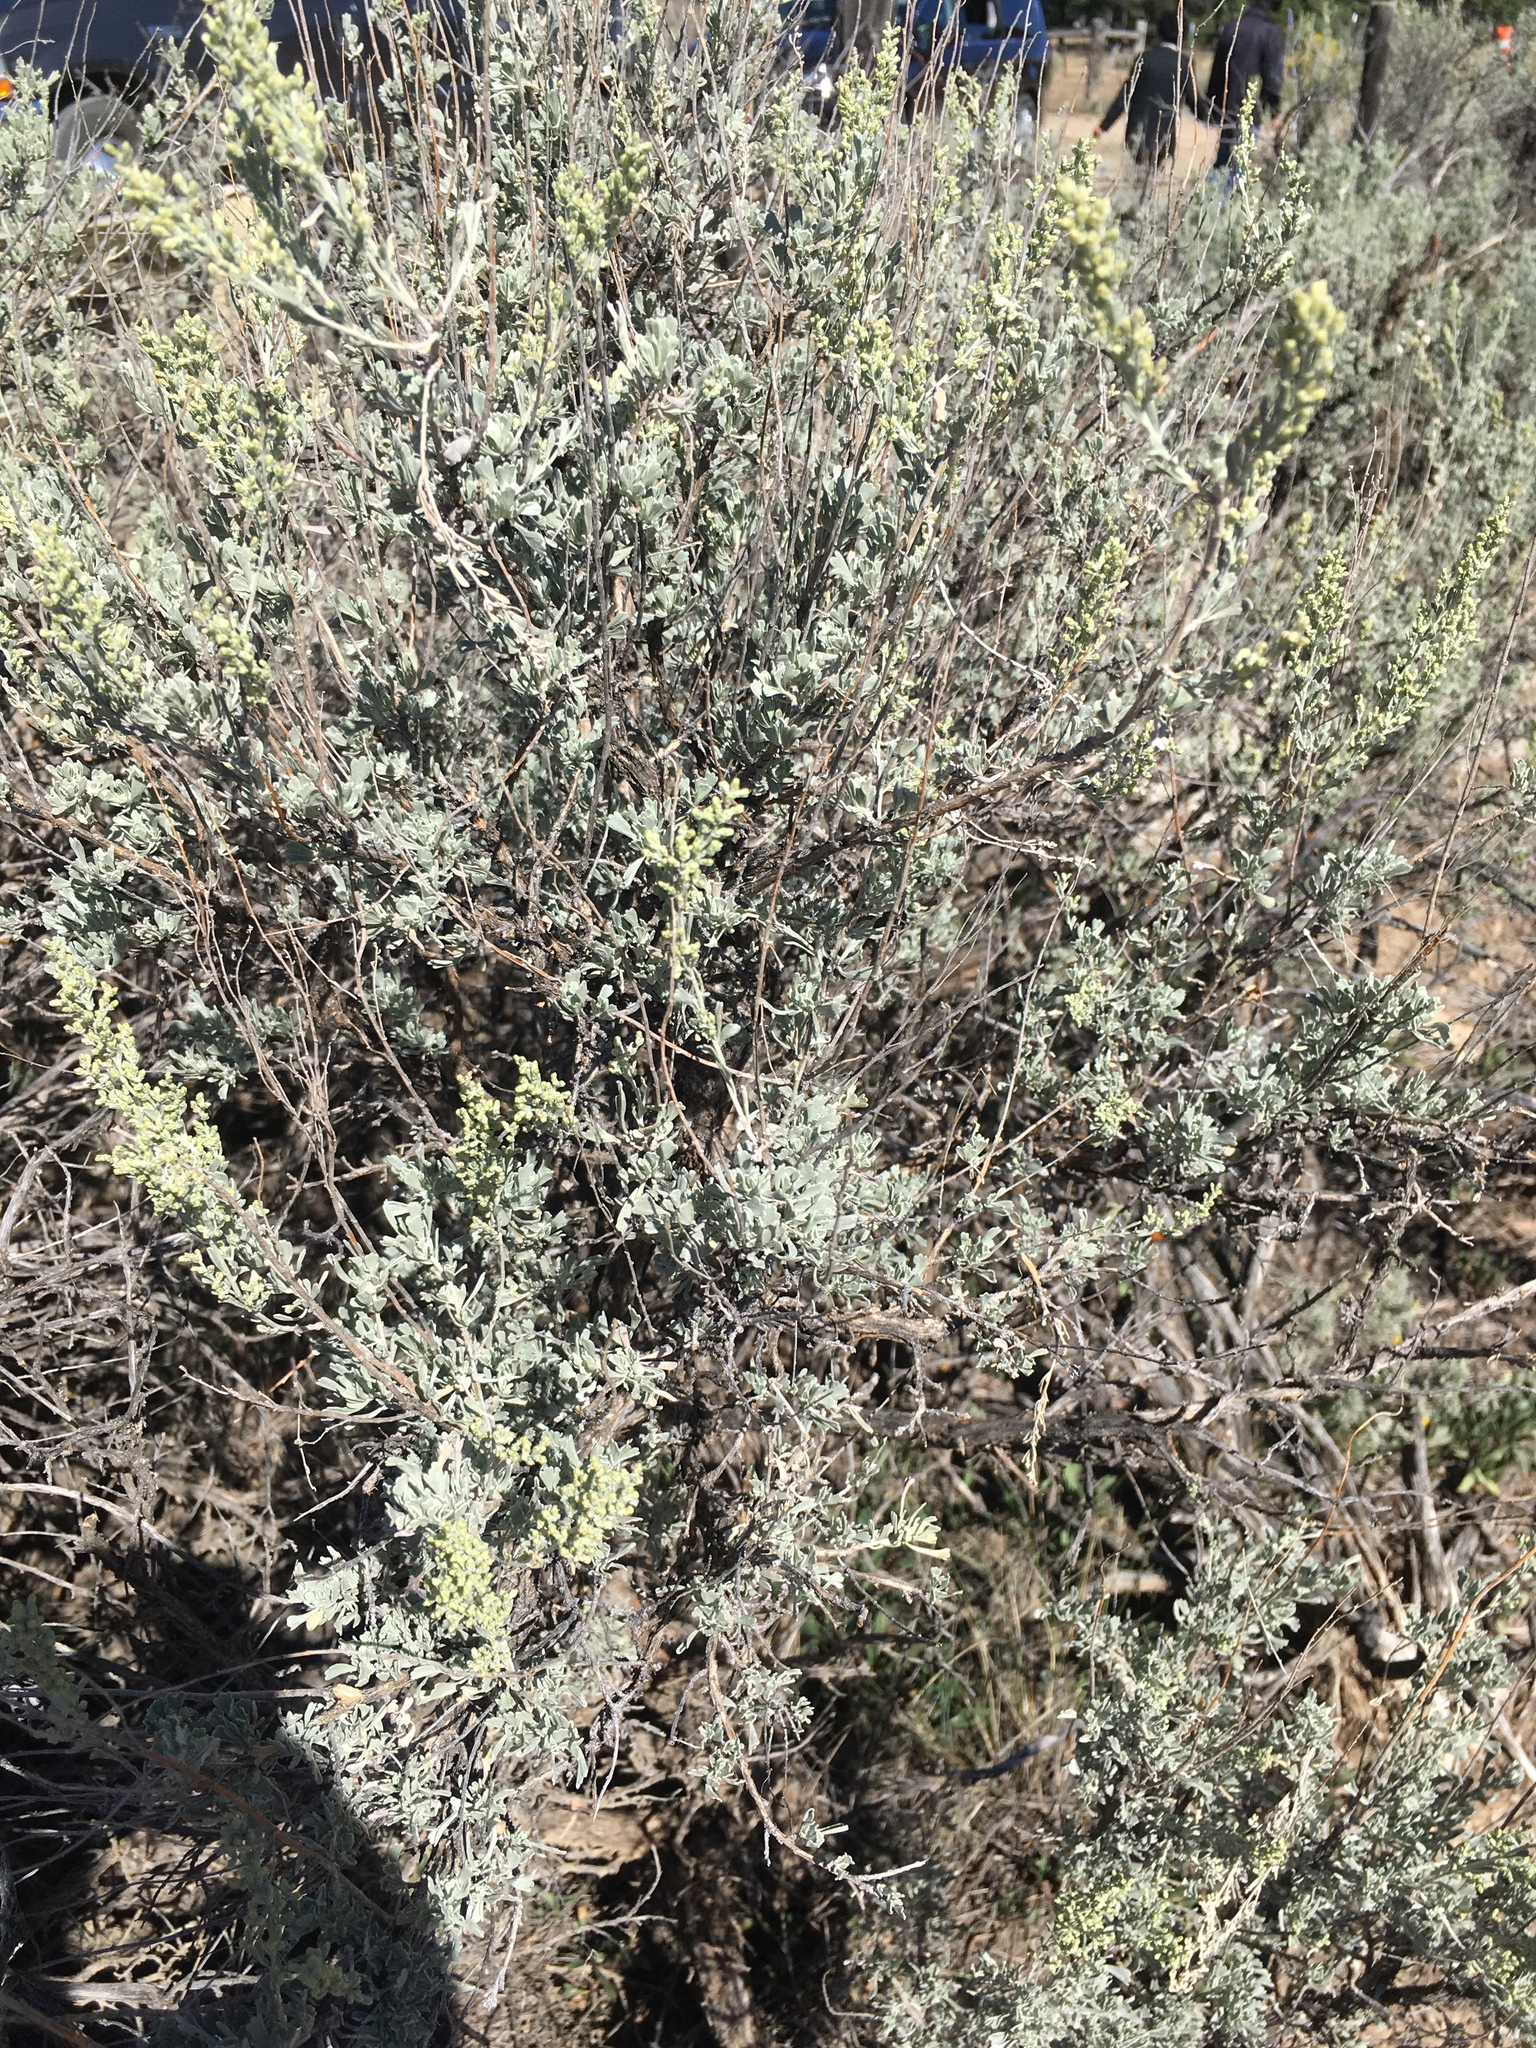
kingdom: Plantae
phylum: Tracheophyta
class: Magnoliopsida
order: Asterales
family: Asteraceae
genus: Artemisia
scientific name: Artemisia tridentata
